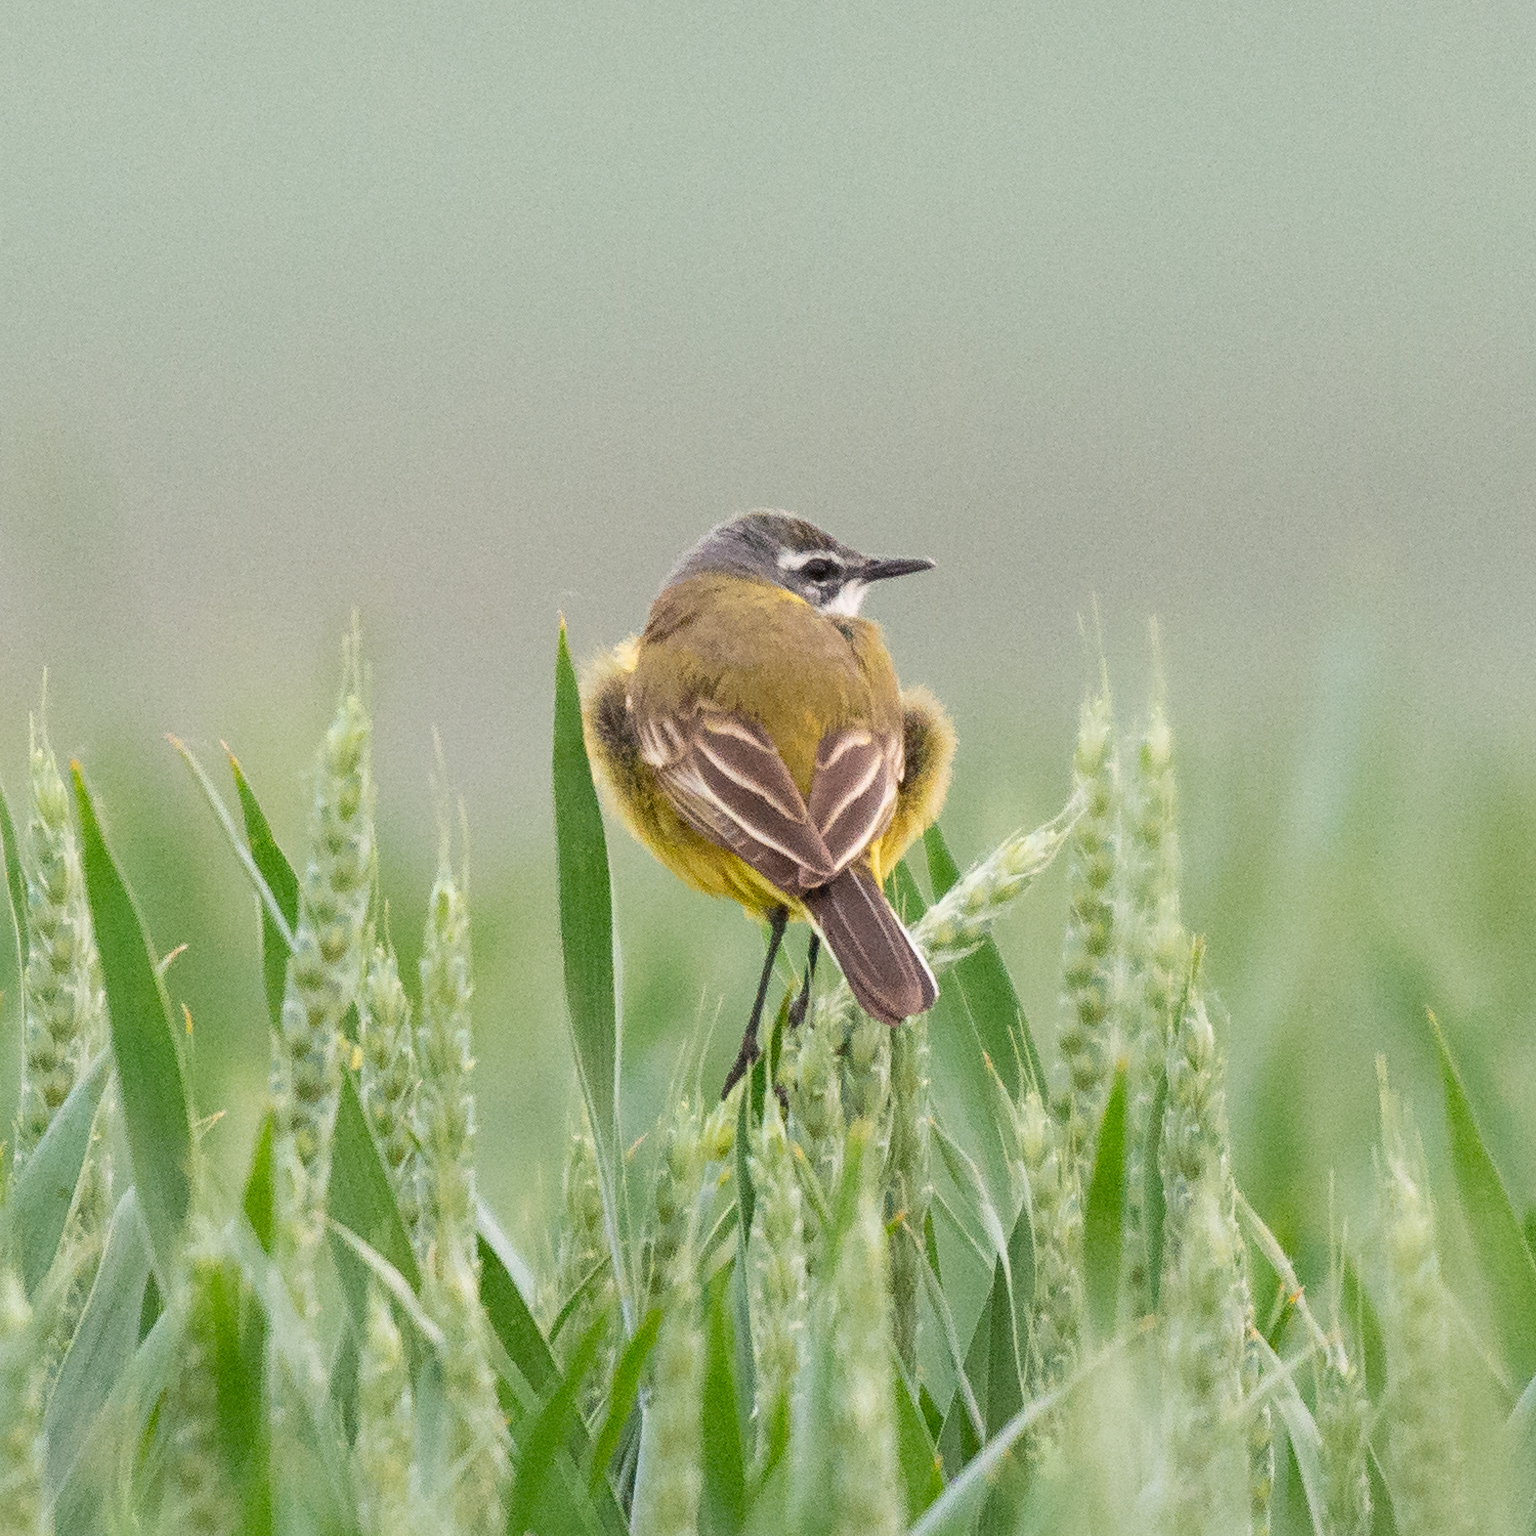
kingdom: Animalia
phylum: Chordata
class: Aves
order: Passeriformes
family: Motacillidae
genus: Motacilla
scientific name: Motacilla flava
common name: Western yellow wagtail
